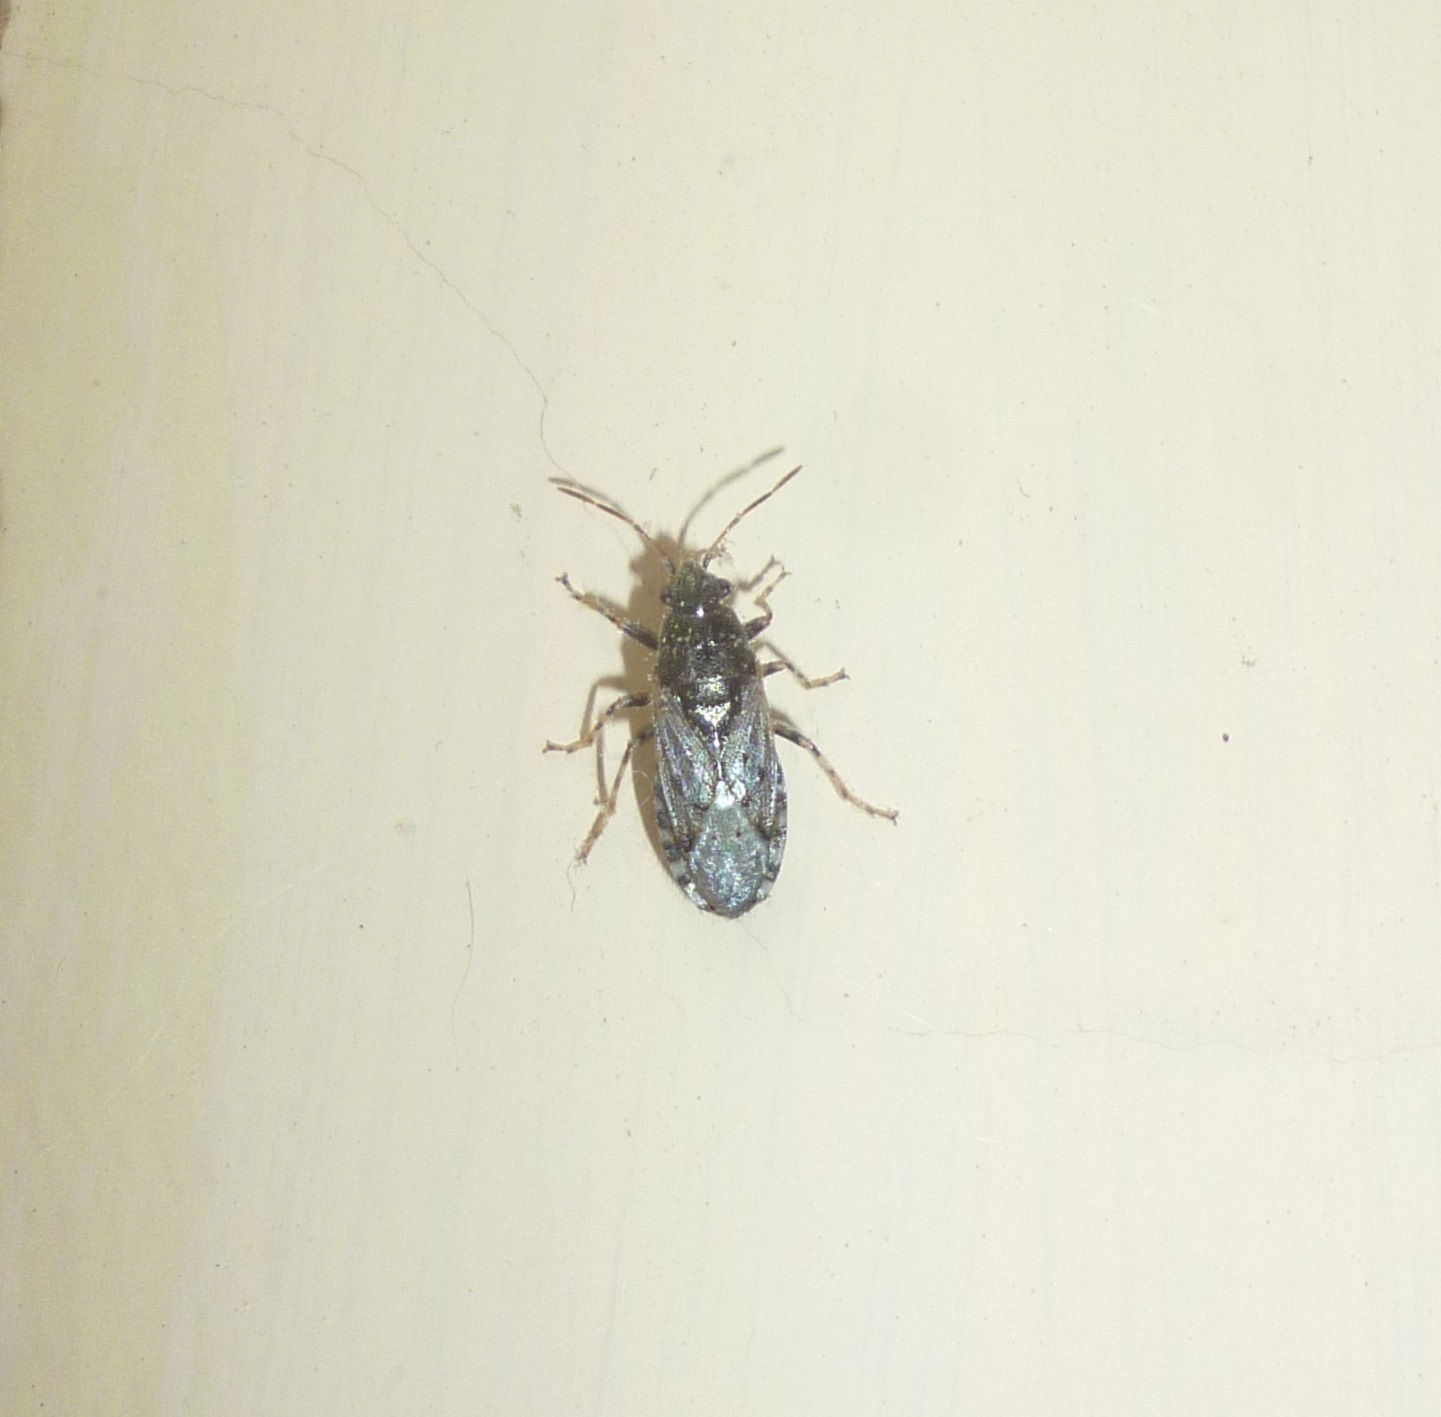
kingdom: Animalia
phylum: Arthropoda
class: Insecta
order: Hemiptera
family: Heterogastridae
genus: Heterogaster
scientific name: Heterogaster urticae
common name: Seed bug
